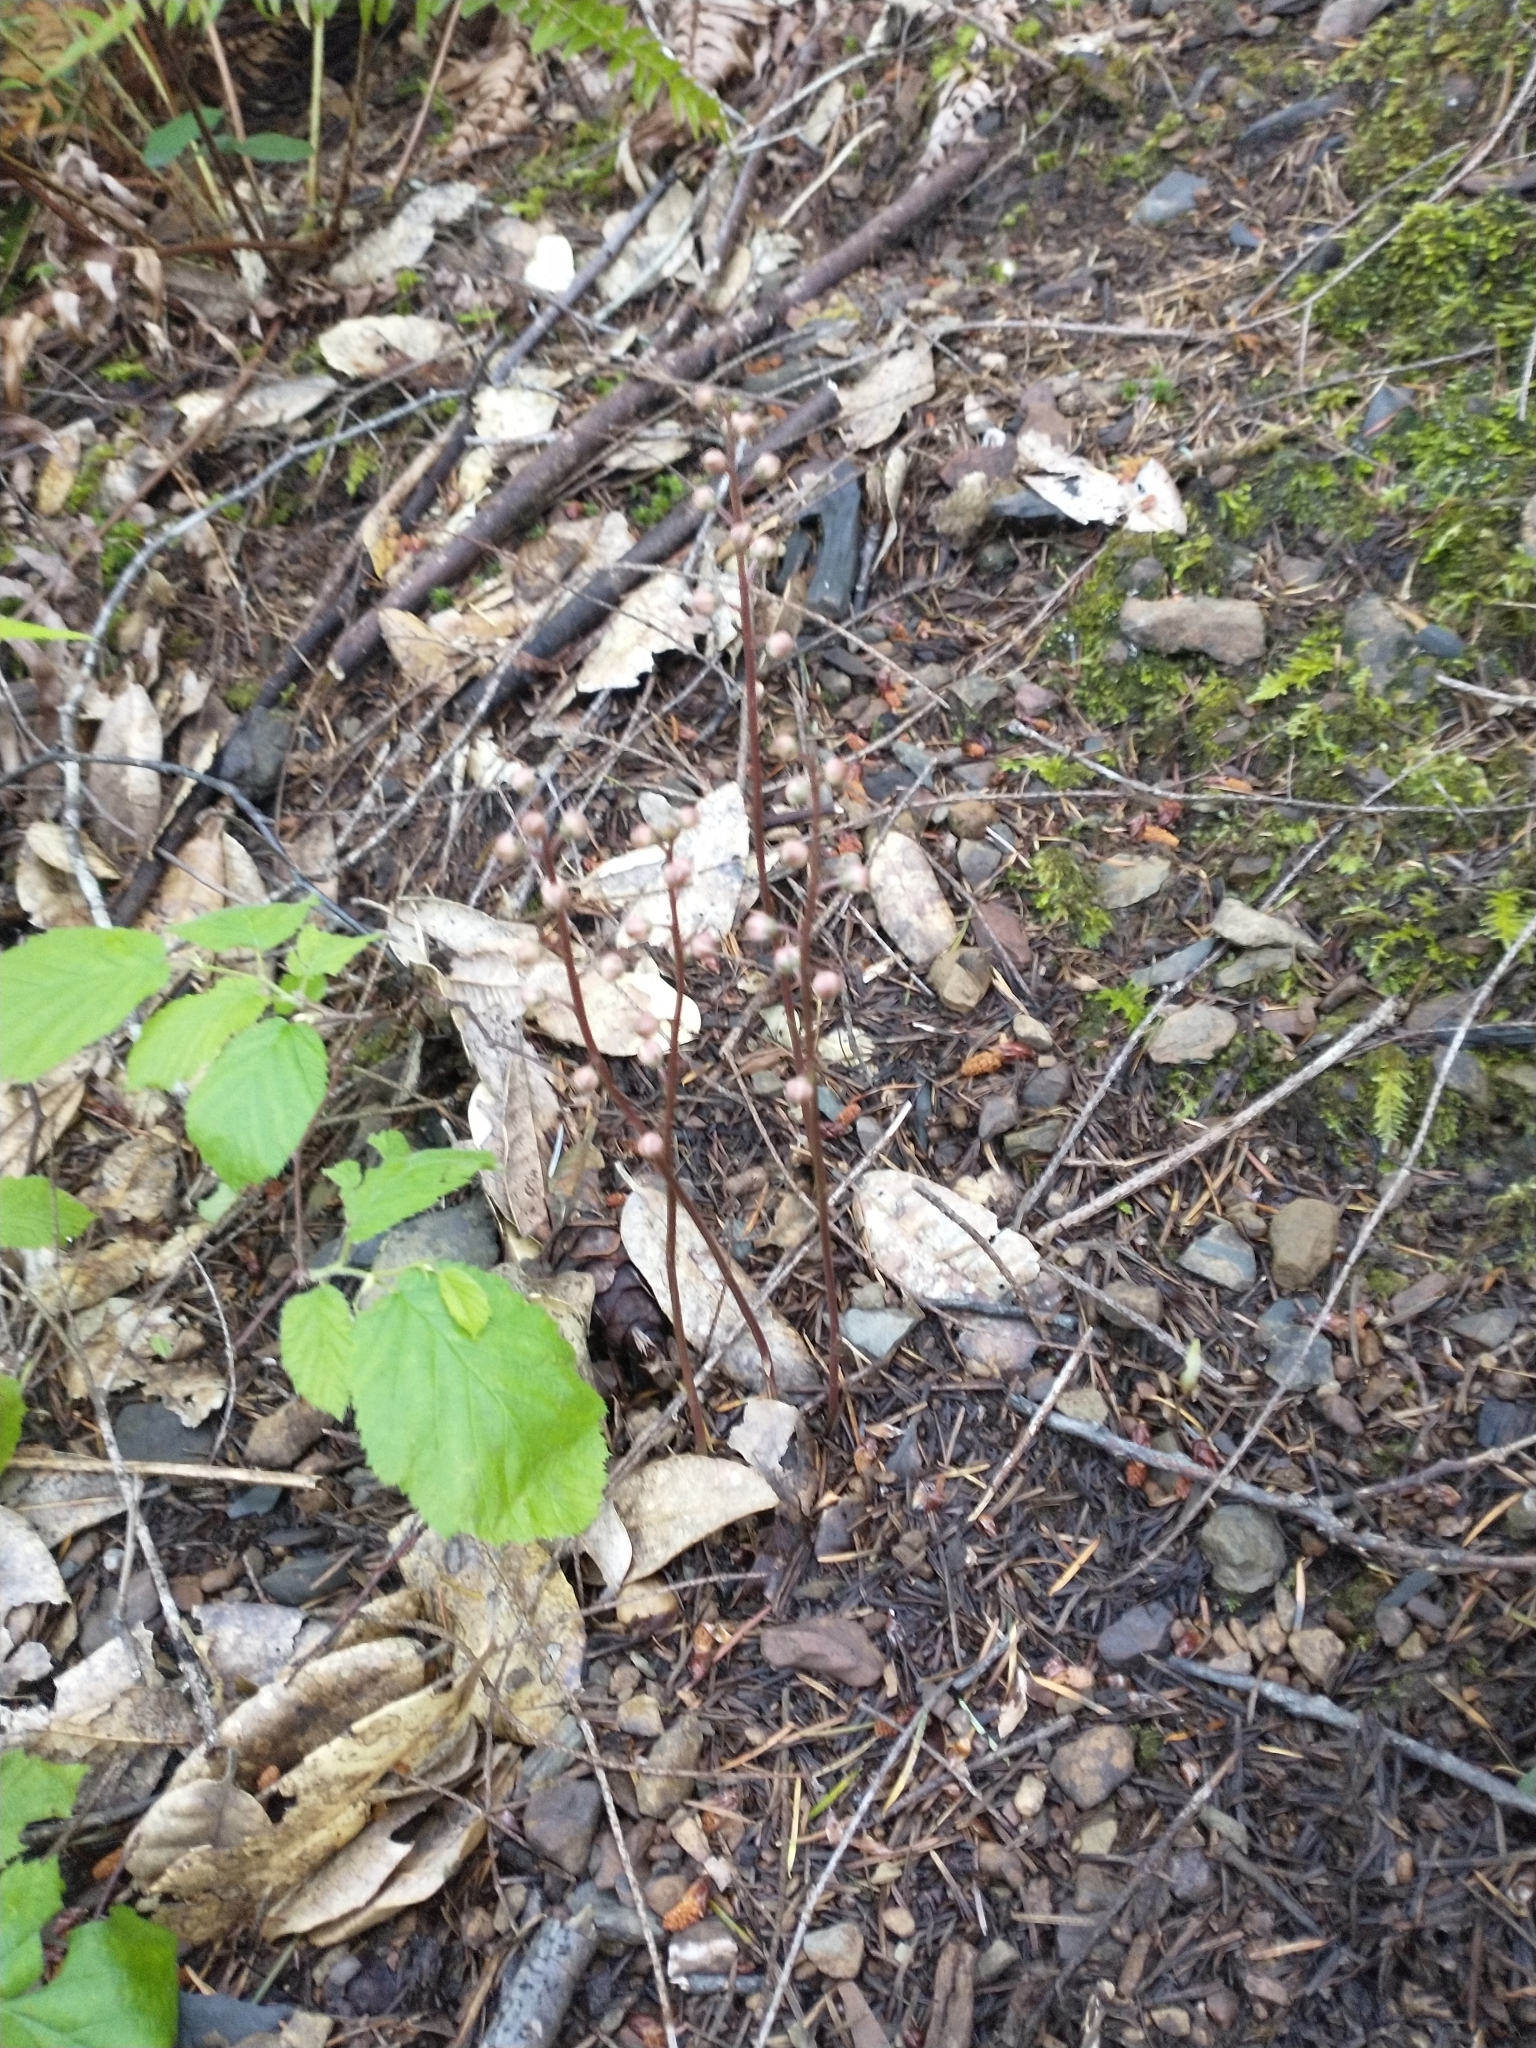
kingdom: Plantae
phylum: Tracheophyta
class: Magnoliopsida
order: Ericales
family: Ericaceae
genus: Pyrola
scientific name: Pyrola aphylla
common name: Leafless wintergreen
